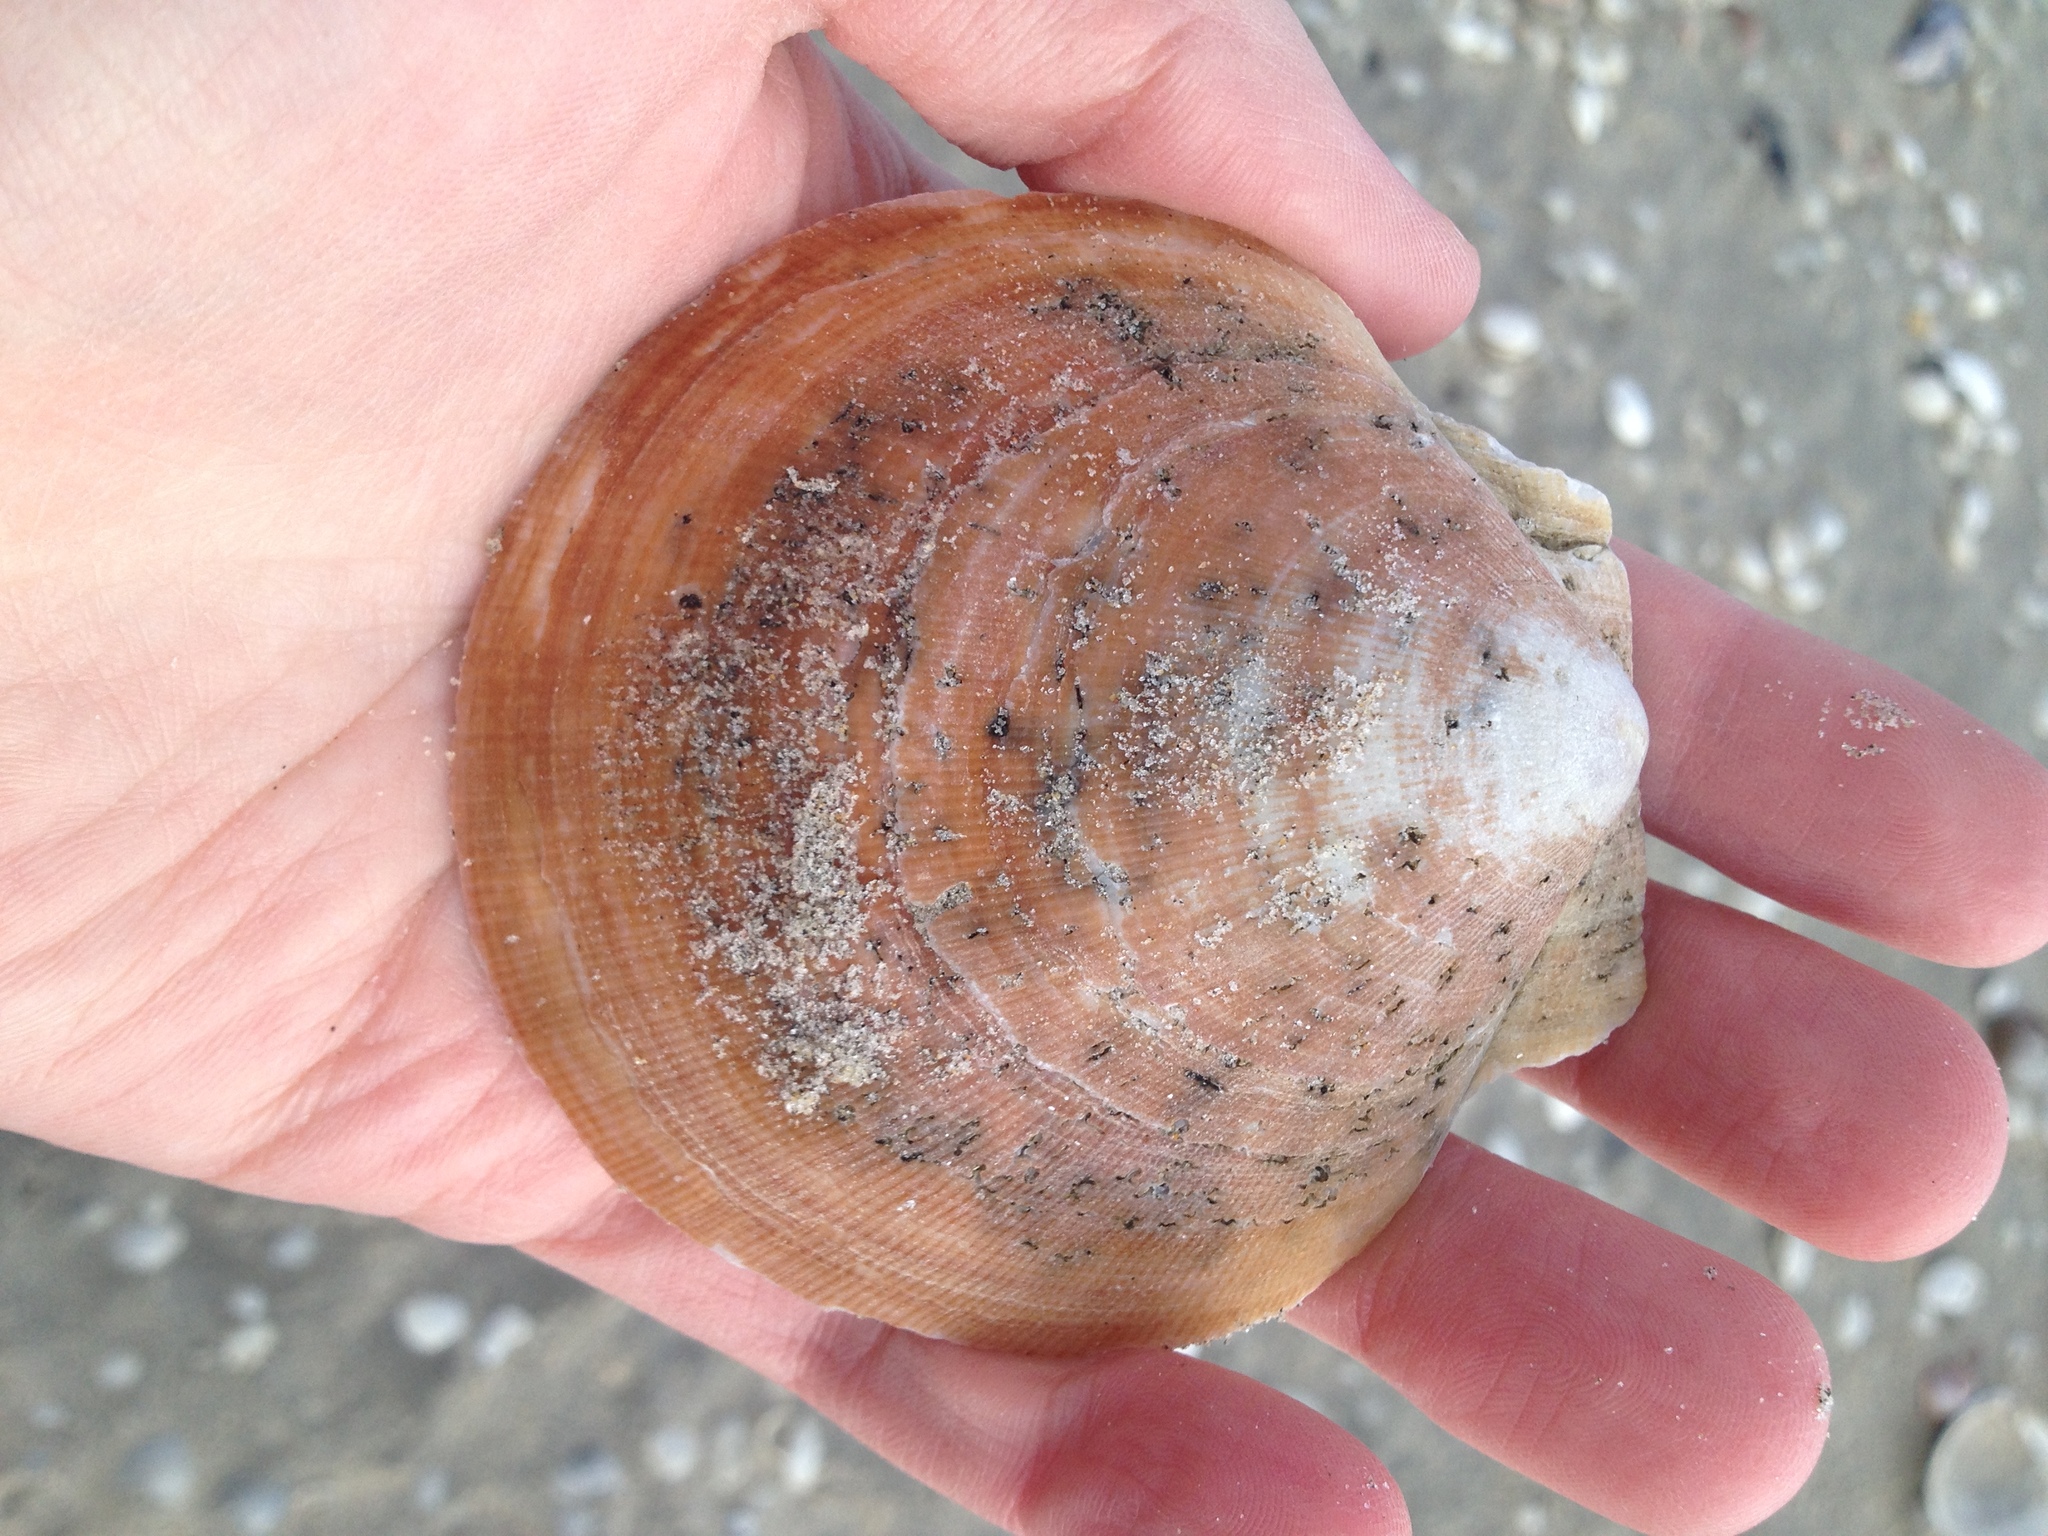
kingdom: Animalia
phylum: Mollusca
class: Bivalvia
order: Pectinida
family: Pectinidae
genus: Placopecten
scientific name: Placopecten magellanicus
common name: American sea scallop
